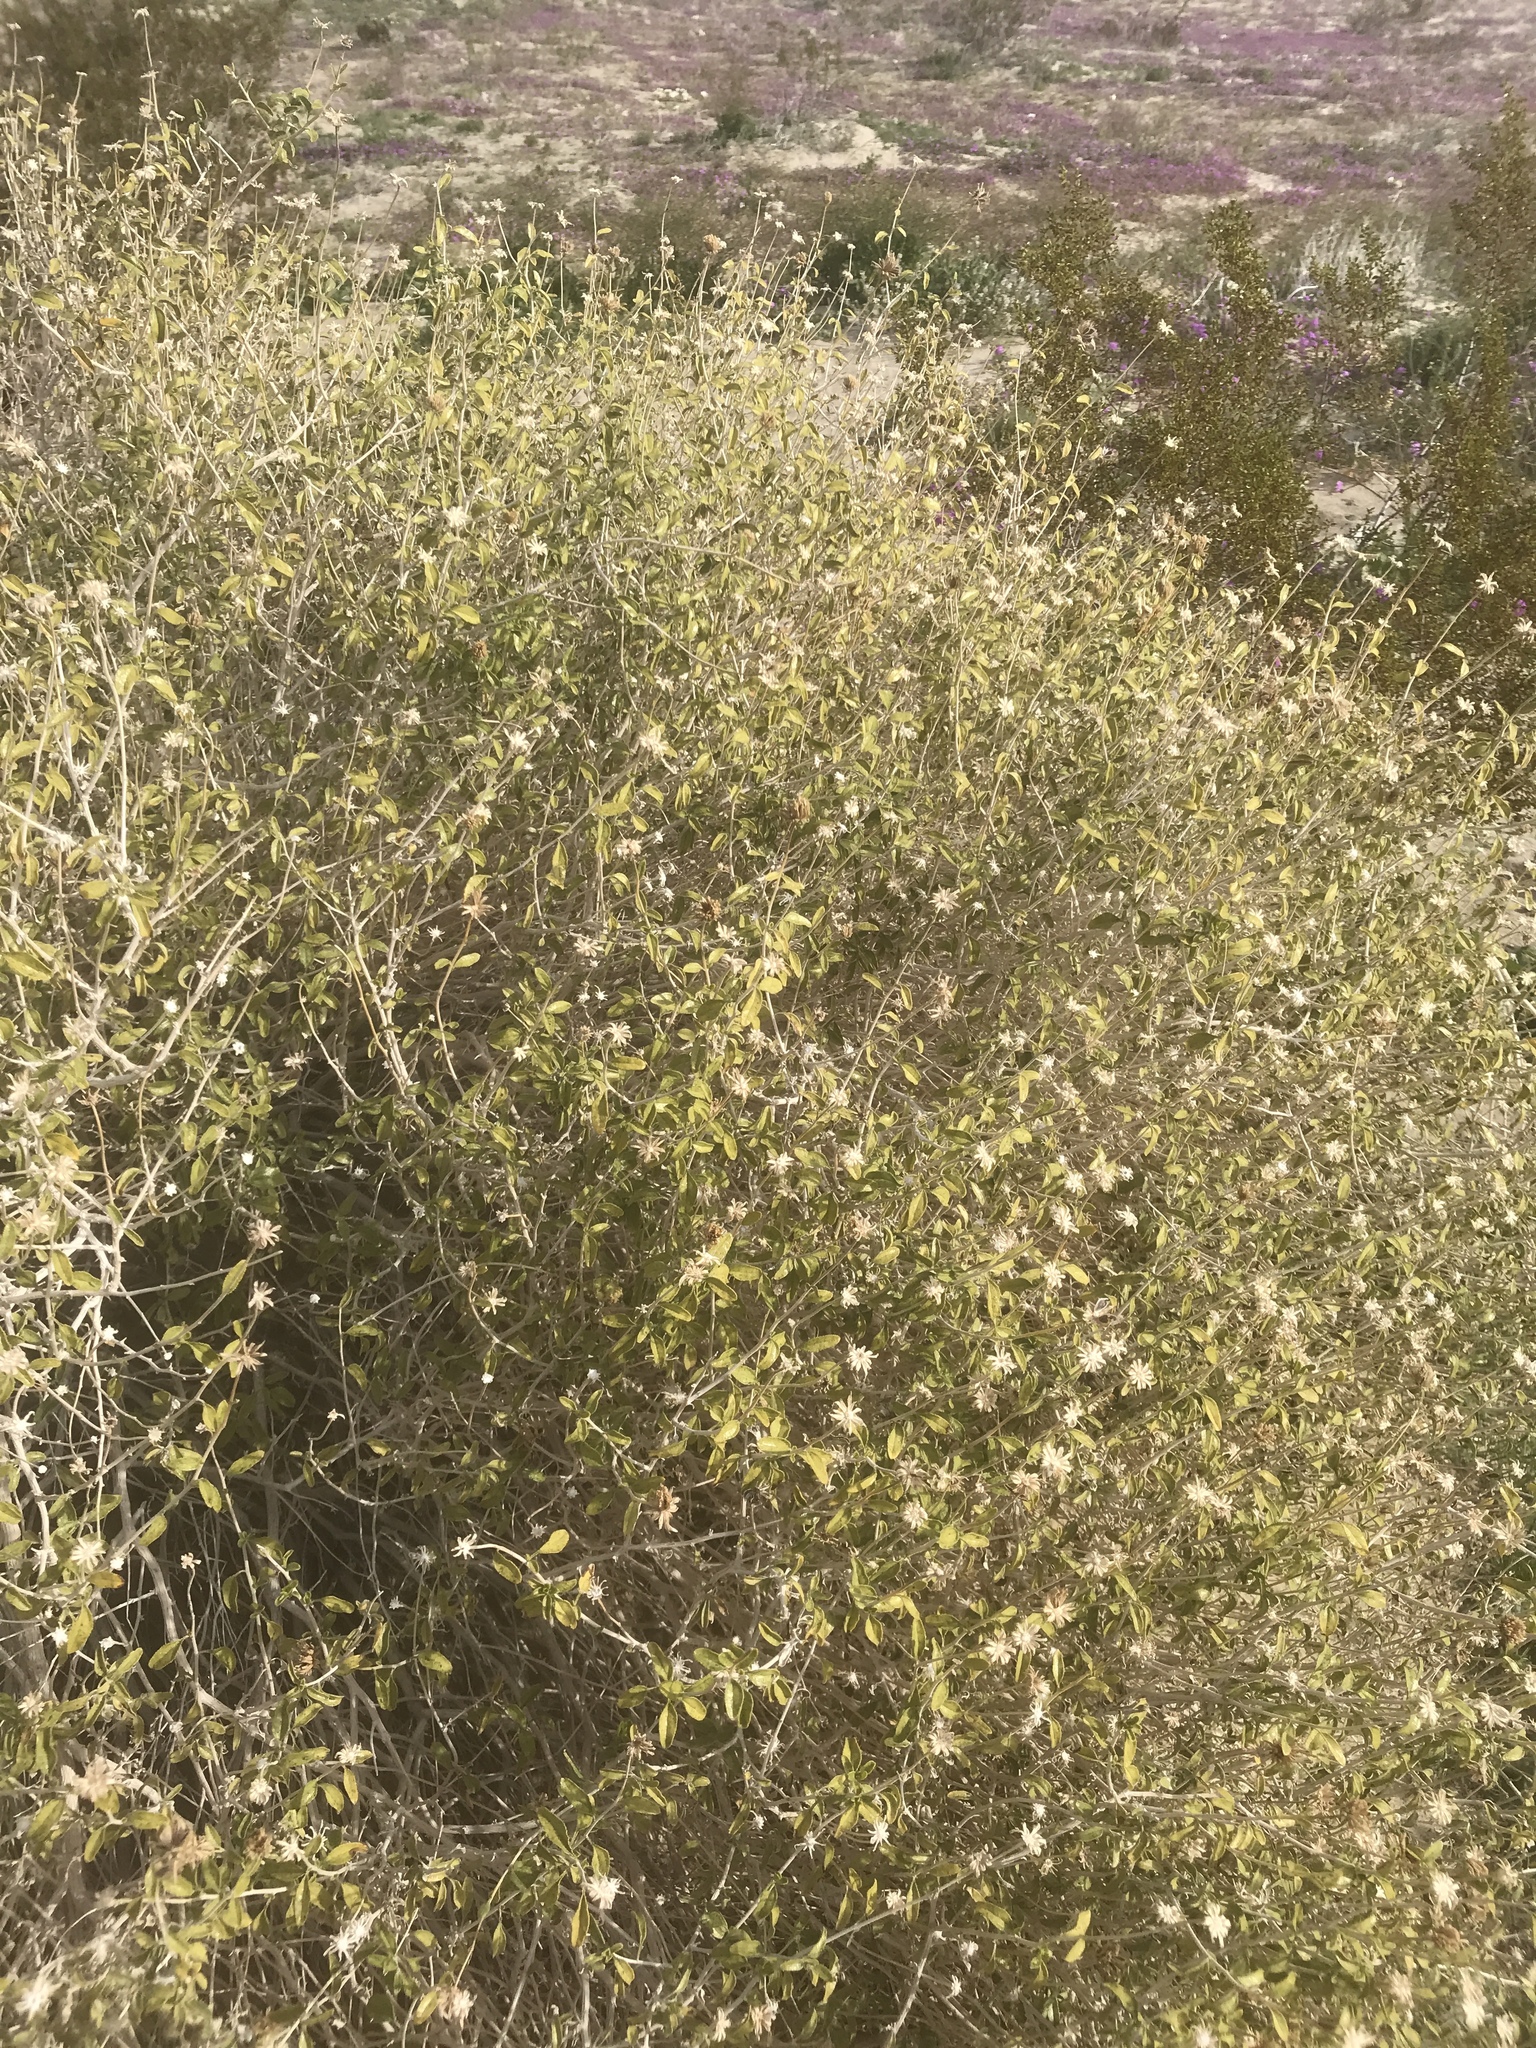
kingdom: Plantae
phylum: Tracheophyta
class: Magnoliopsida
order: Asterales
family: Asteraceae
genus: Encelia
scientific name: Encelia frutescens
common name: Bush encelia
